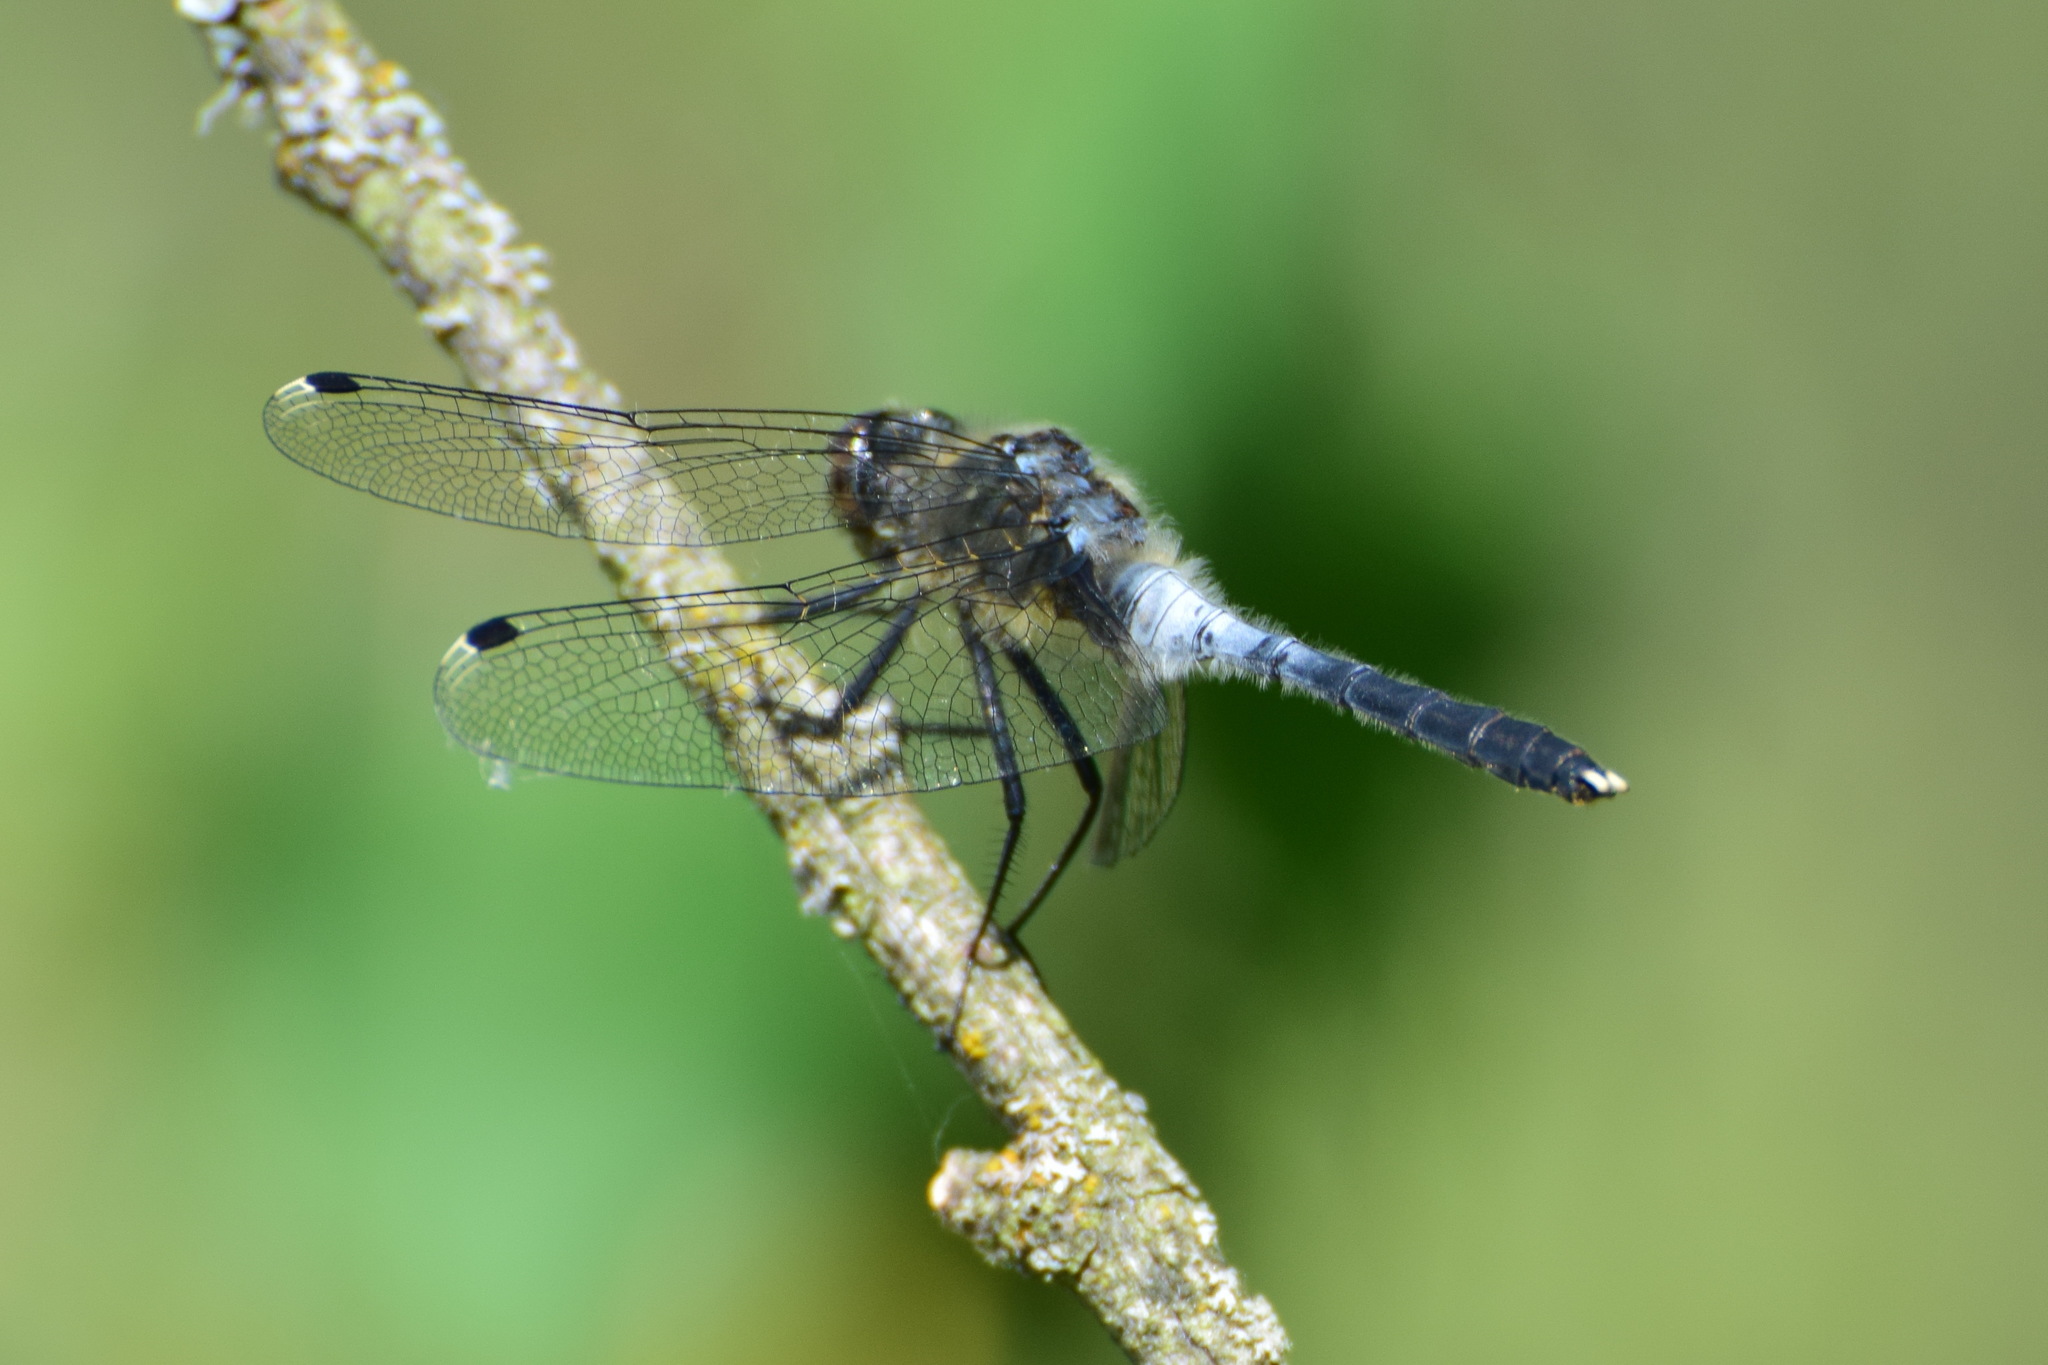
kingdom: Animalia
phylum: Arthropoda
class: Insecta
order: Odonata
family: Libellulidae
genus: Leucorrhinia
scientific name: Leucorrhinia albifrons
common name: Dark whiteface
